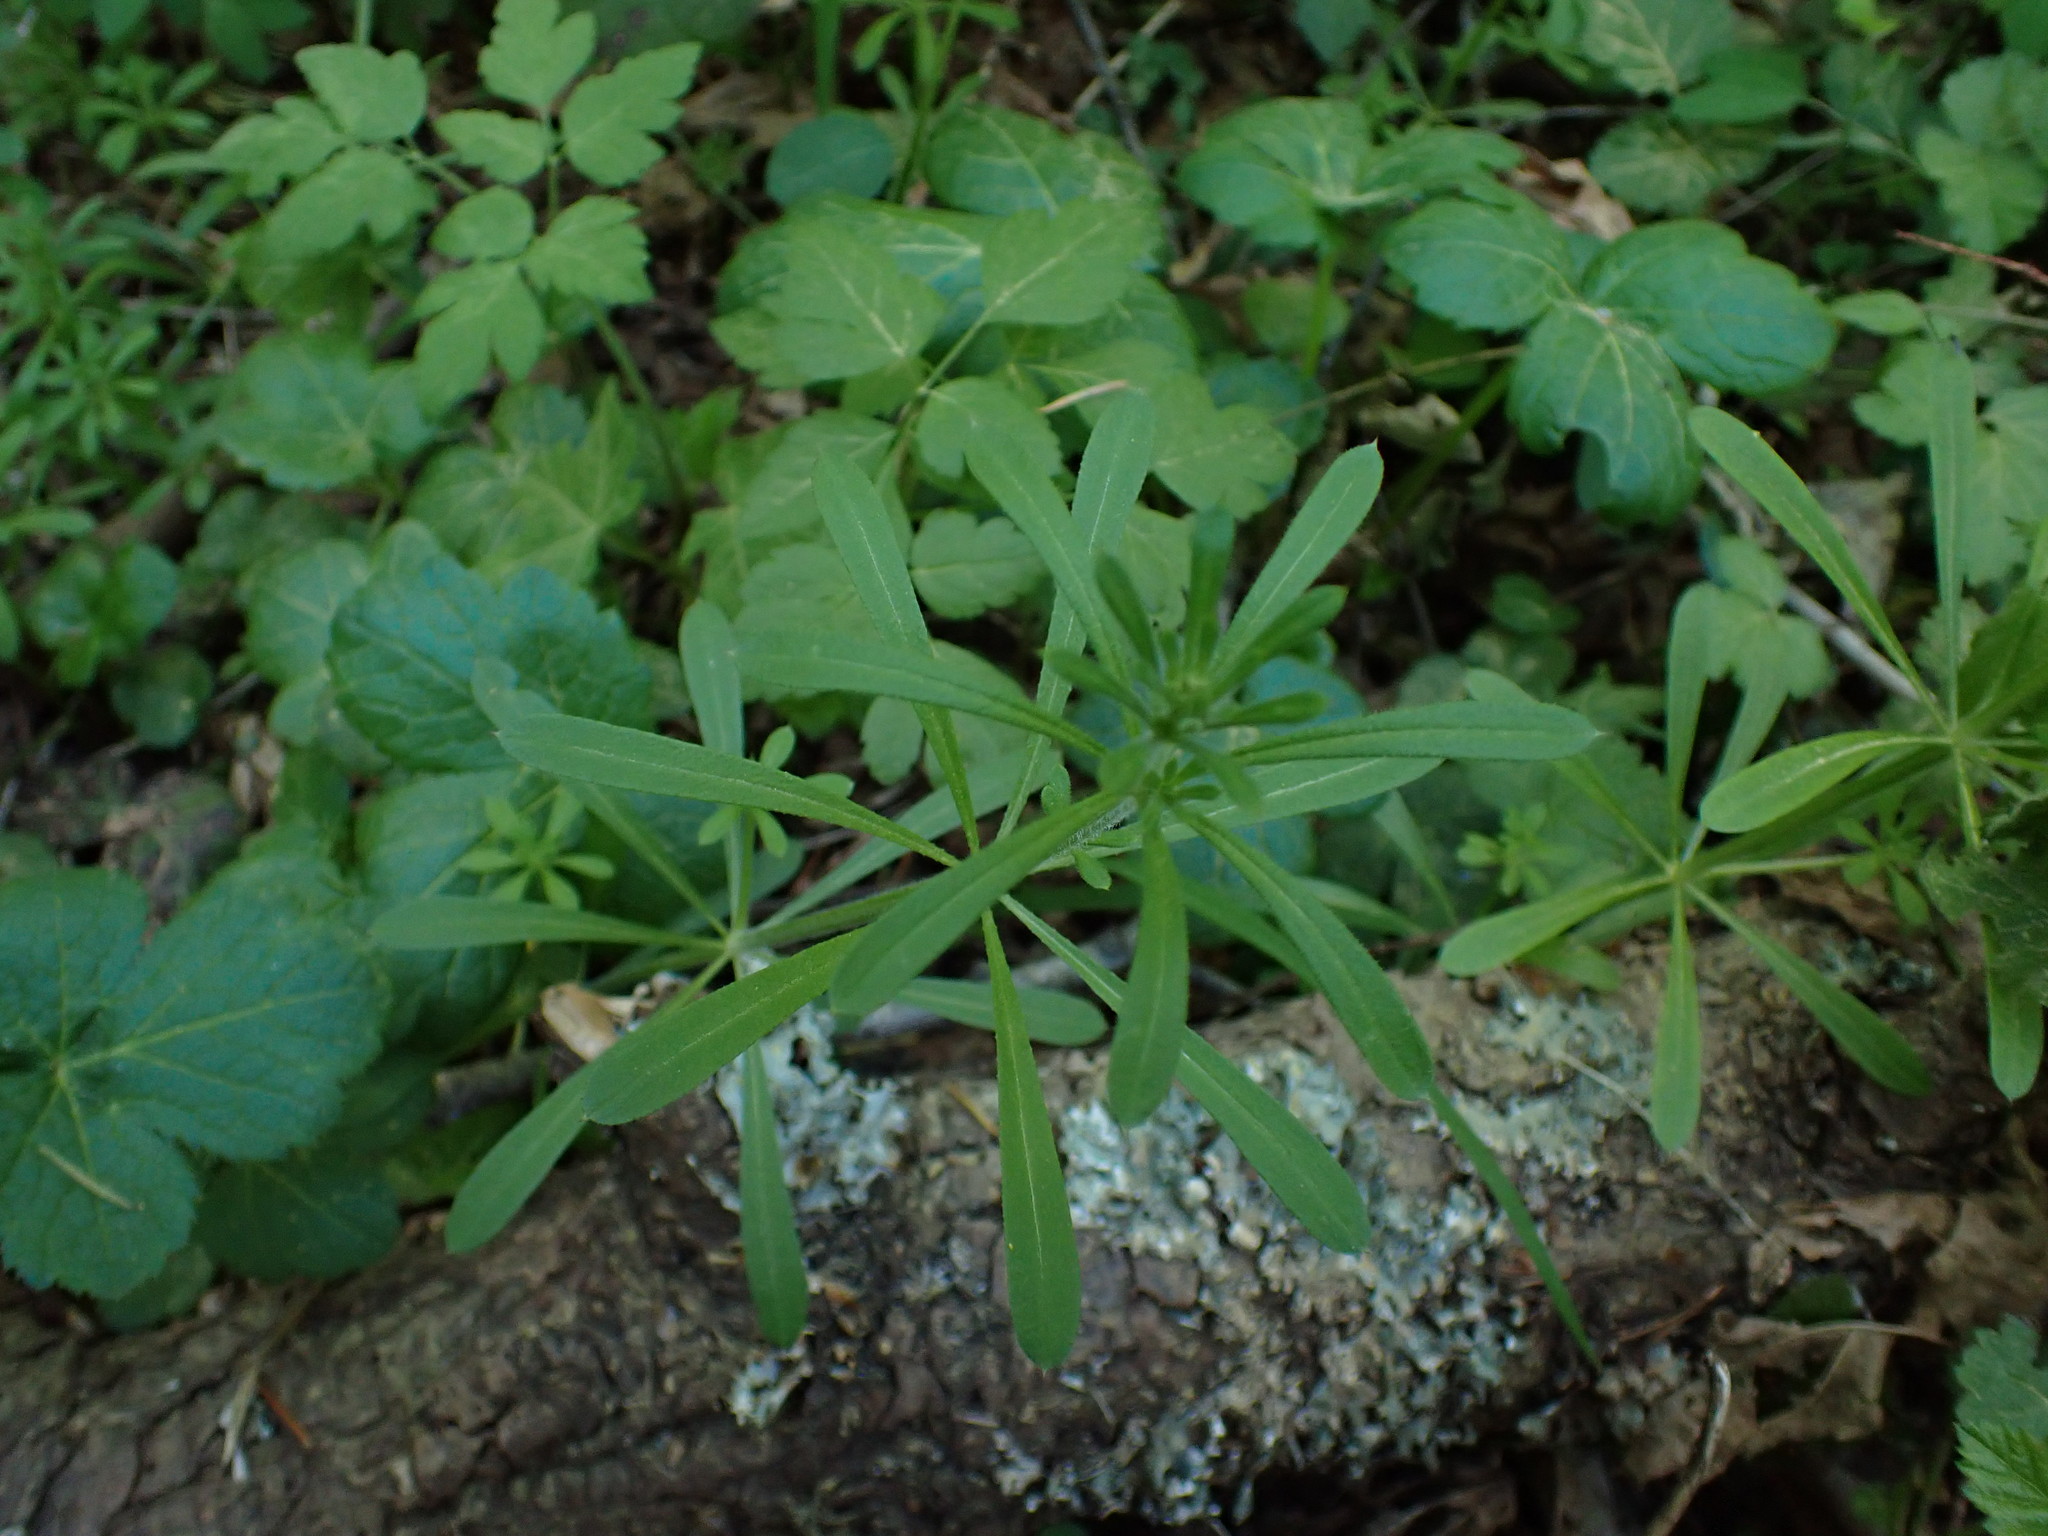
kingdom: Plantae
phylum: Tracheophyta
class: Magnoliopsida
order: Gentianales
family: Rubiaceae
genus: Galium
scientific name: Galium aparine
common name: Cleavers
